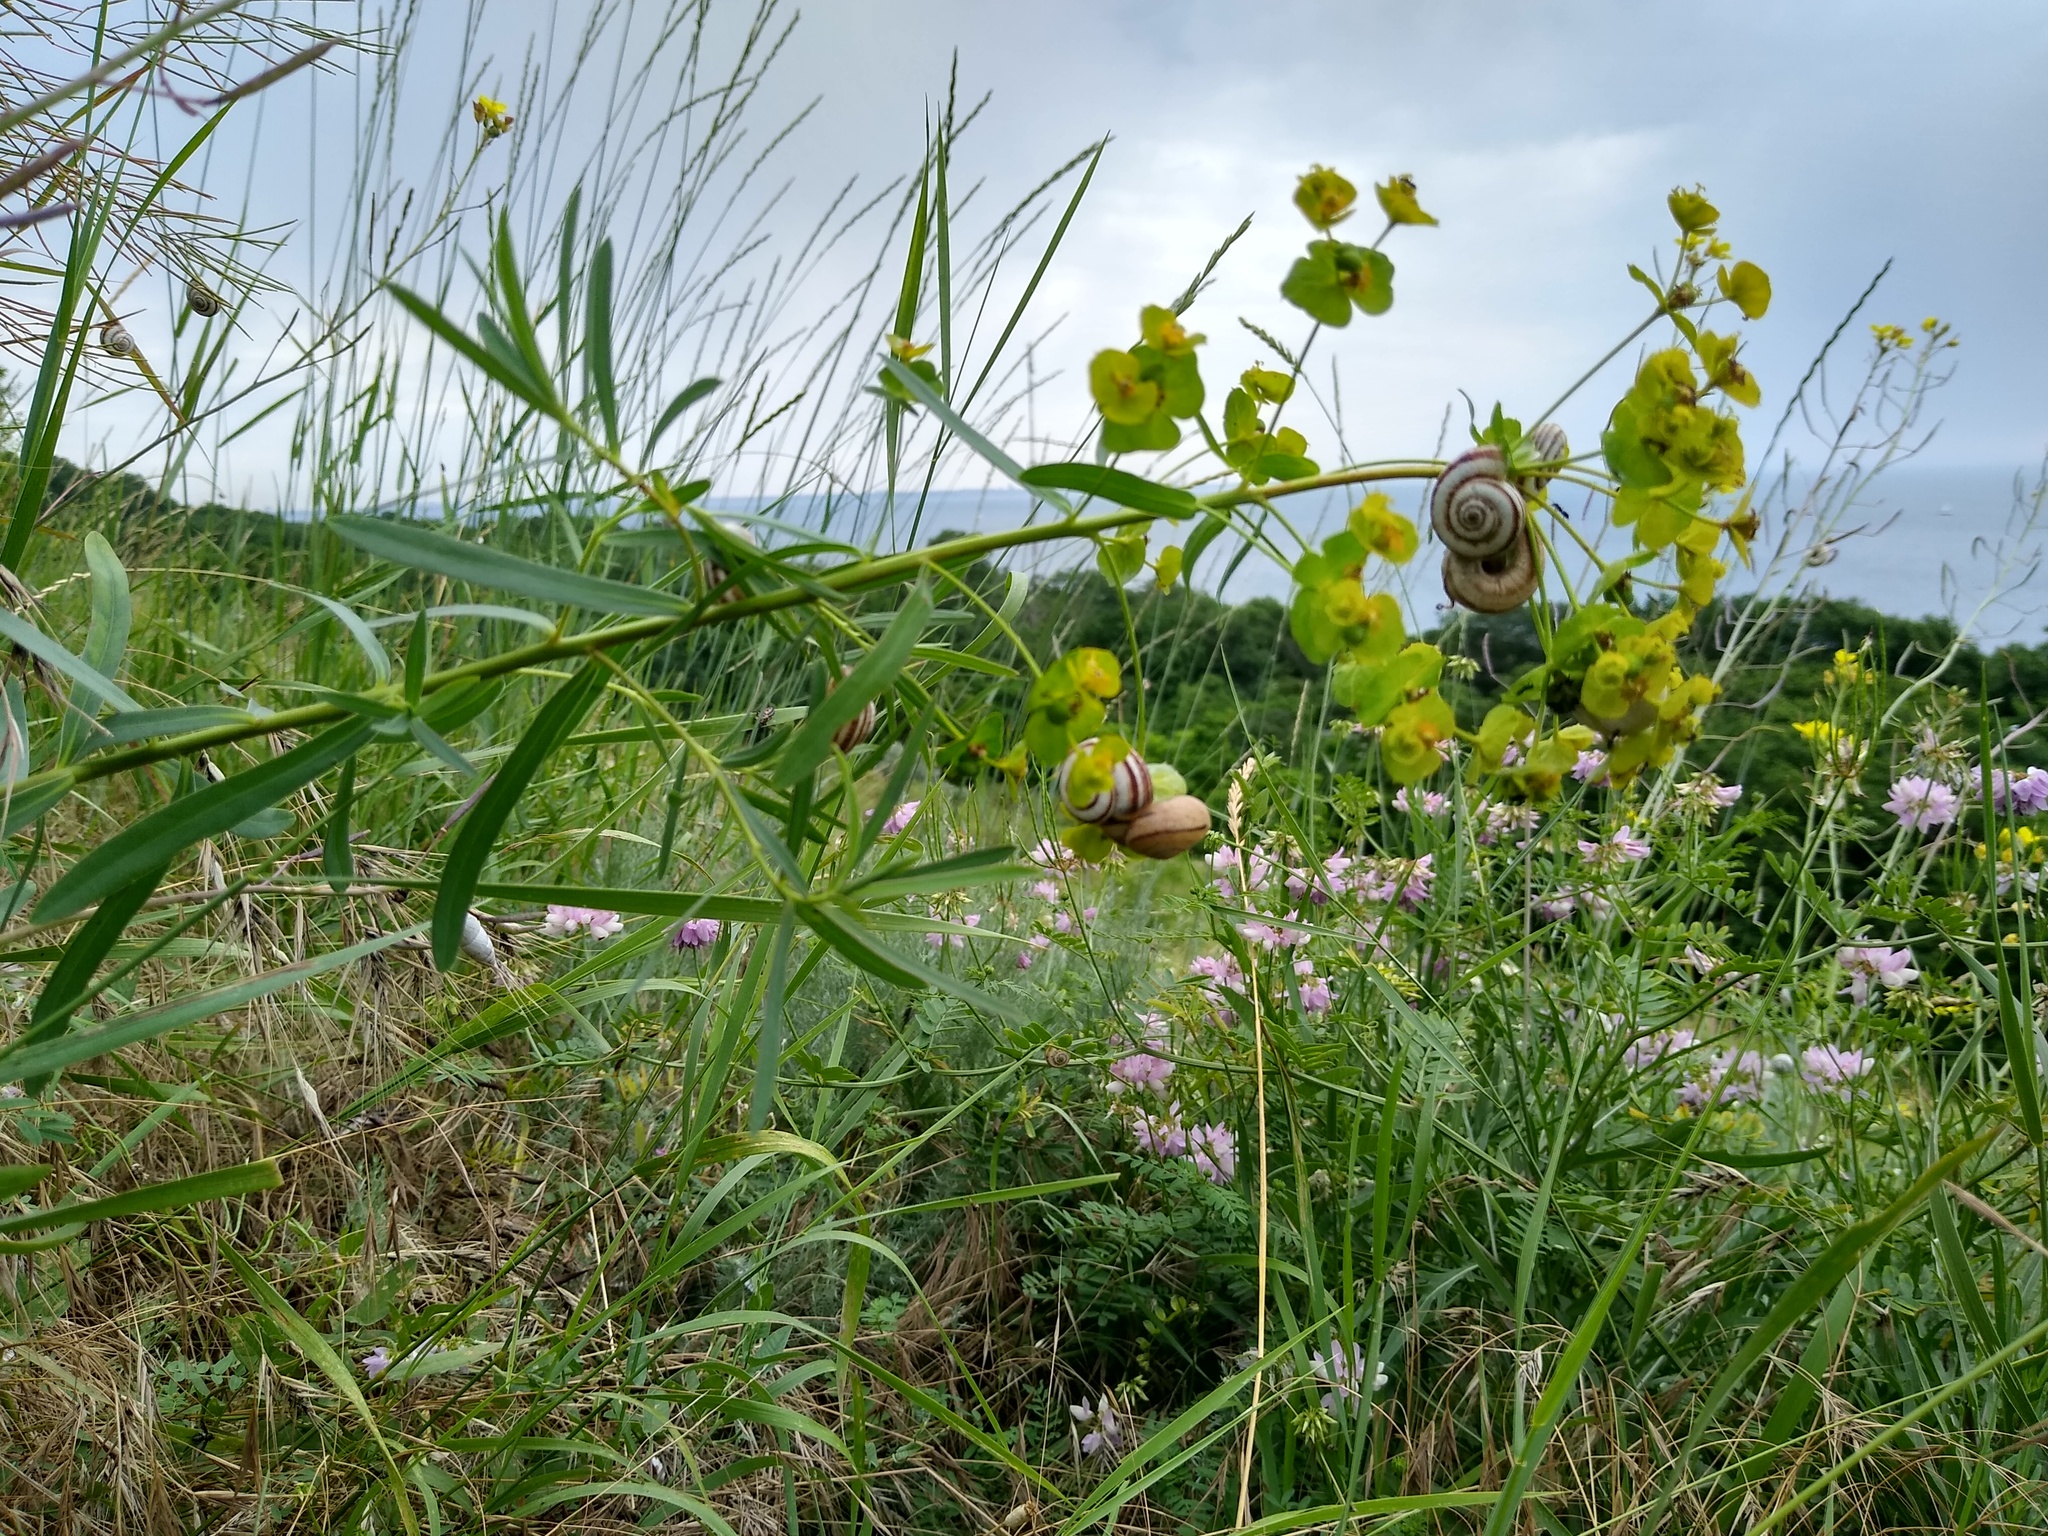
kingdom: Plantae
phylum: Tracheophyta
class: Magnoliopsida
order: Malpighiales
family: Euphorbiaceae
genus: Euphorbia
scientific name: Euphorbia virgata
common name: Leafy spurge
